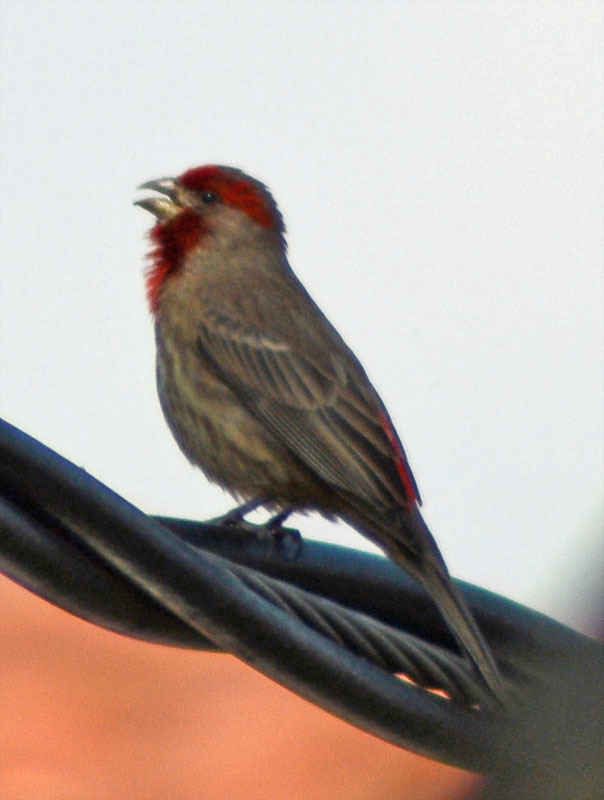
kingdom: Animalia
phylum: Chordata
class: Aves
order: Passeriformes
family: Fringillidae
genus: Haemorhous
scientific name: Haemorhous mexicanus
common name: House finch
